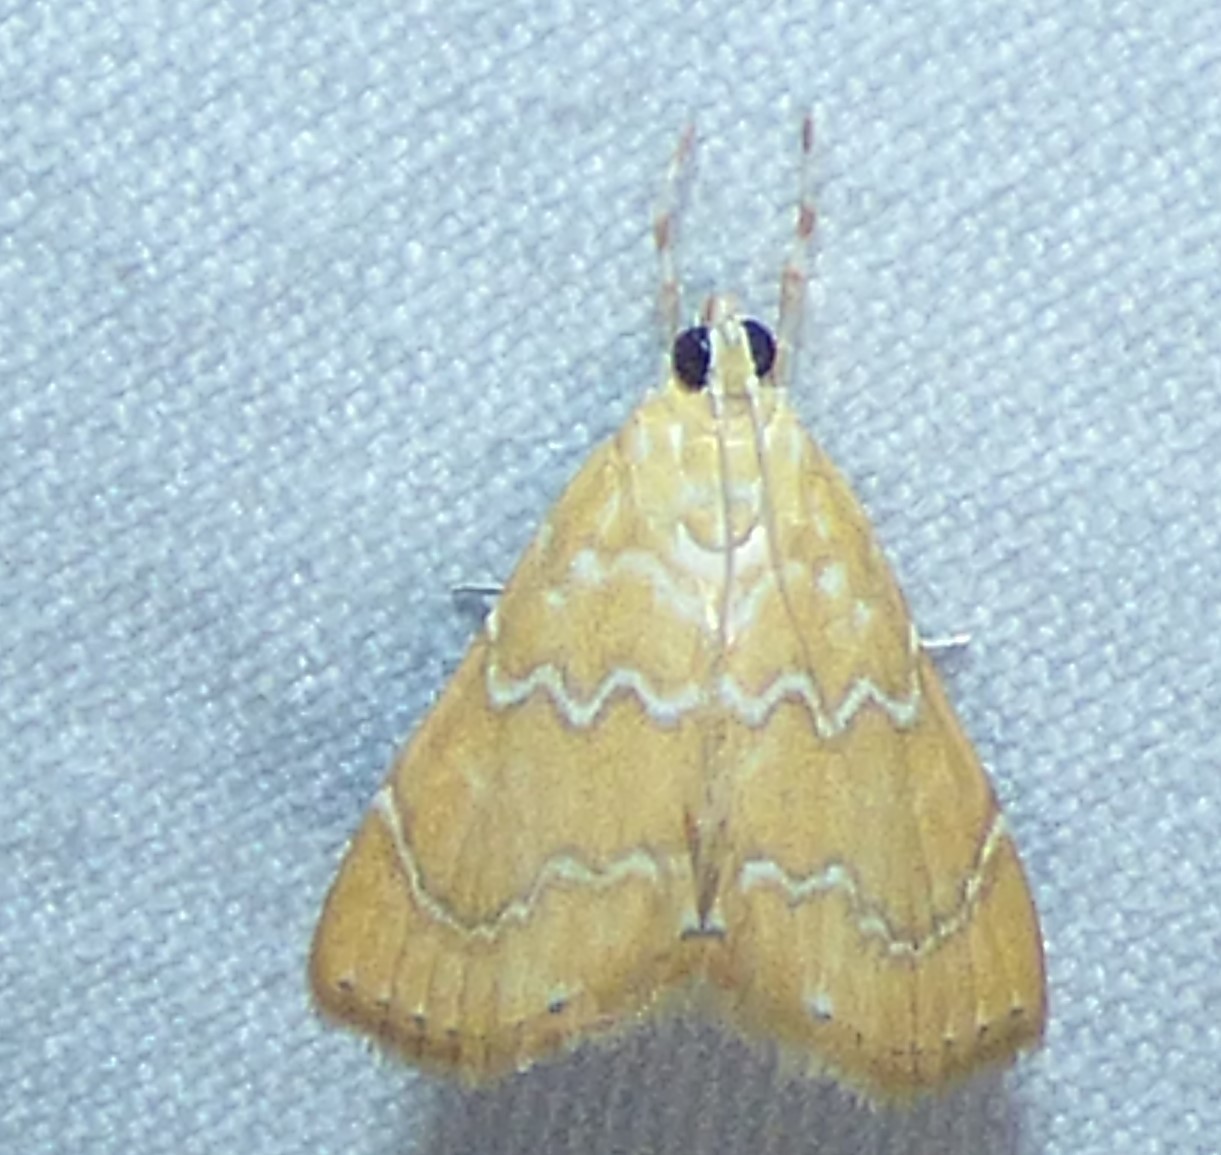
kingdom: Animalia
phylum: Arthropoda
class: Insecta
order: Lepidoptera
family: Crambidae
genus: Glaphyria
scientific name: Glaphyria sesquistrialis
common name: White-roped glaphyria
